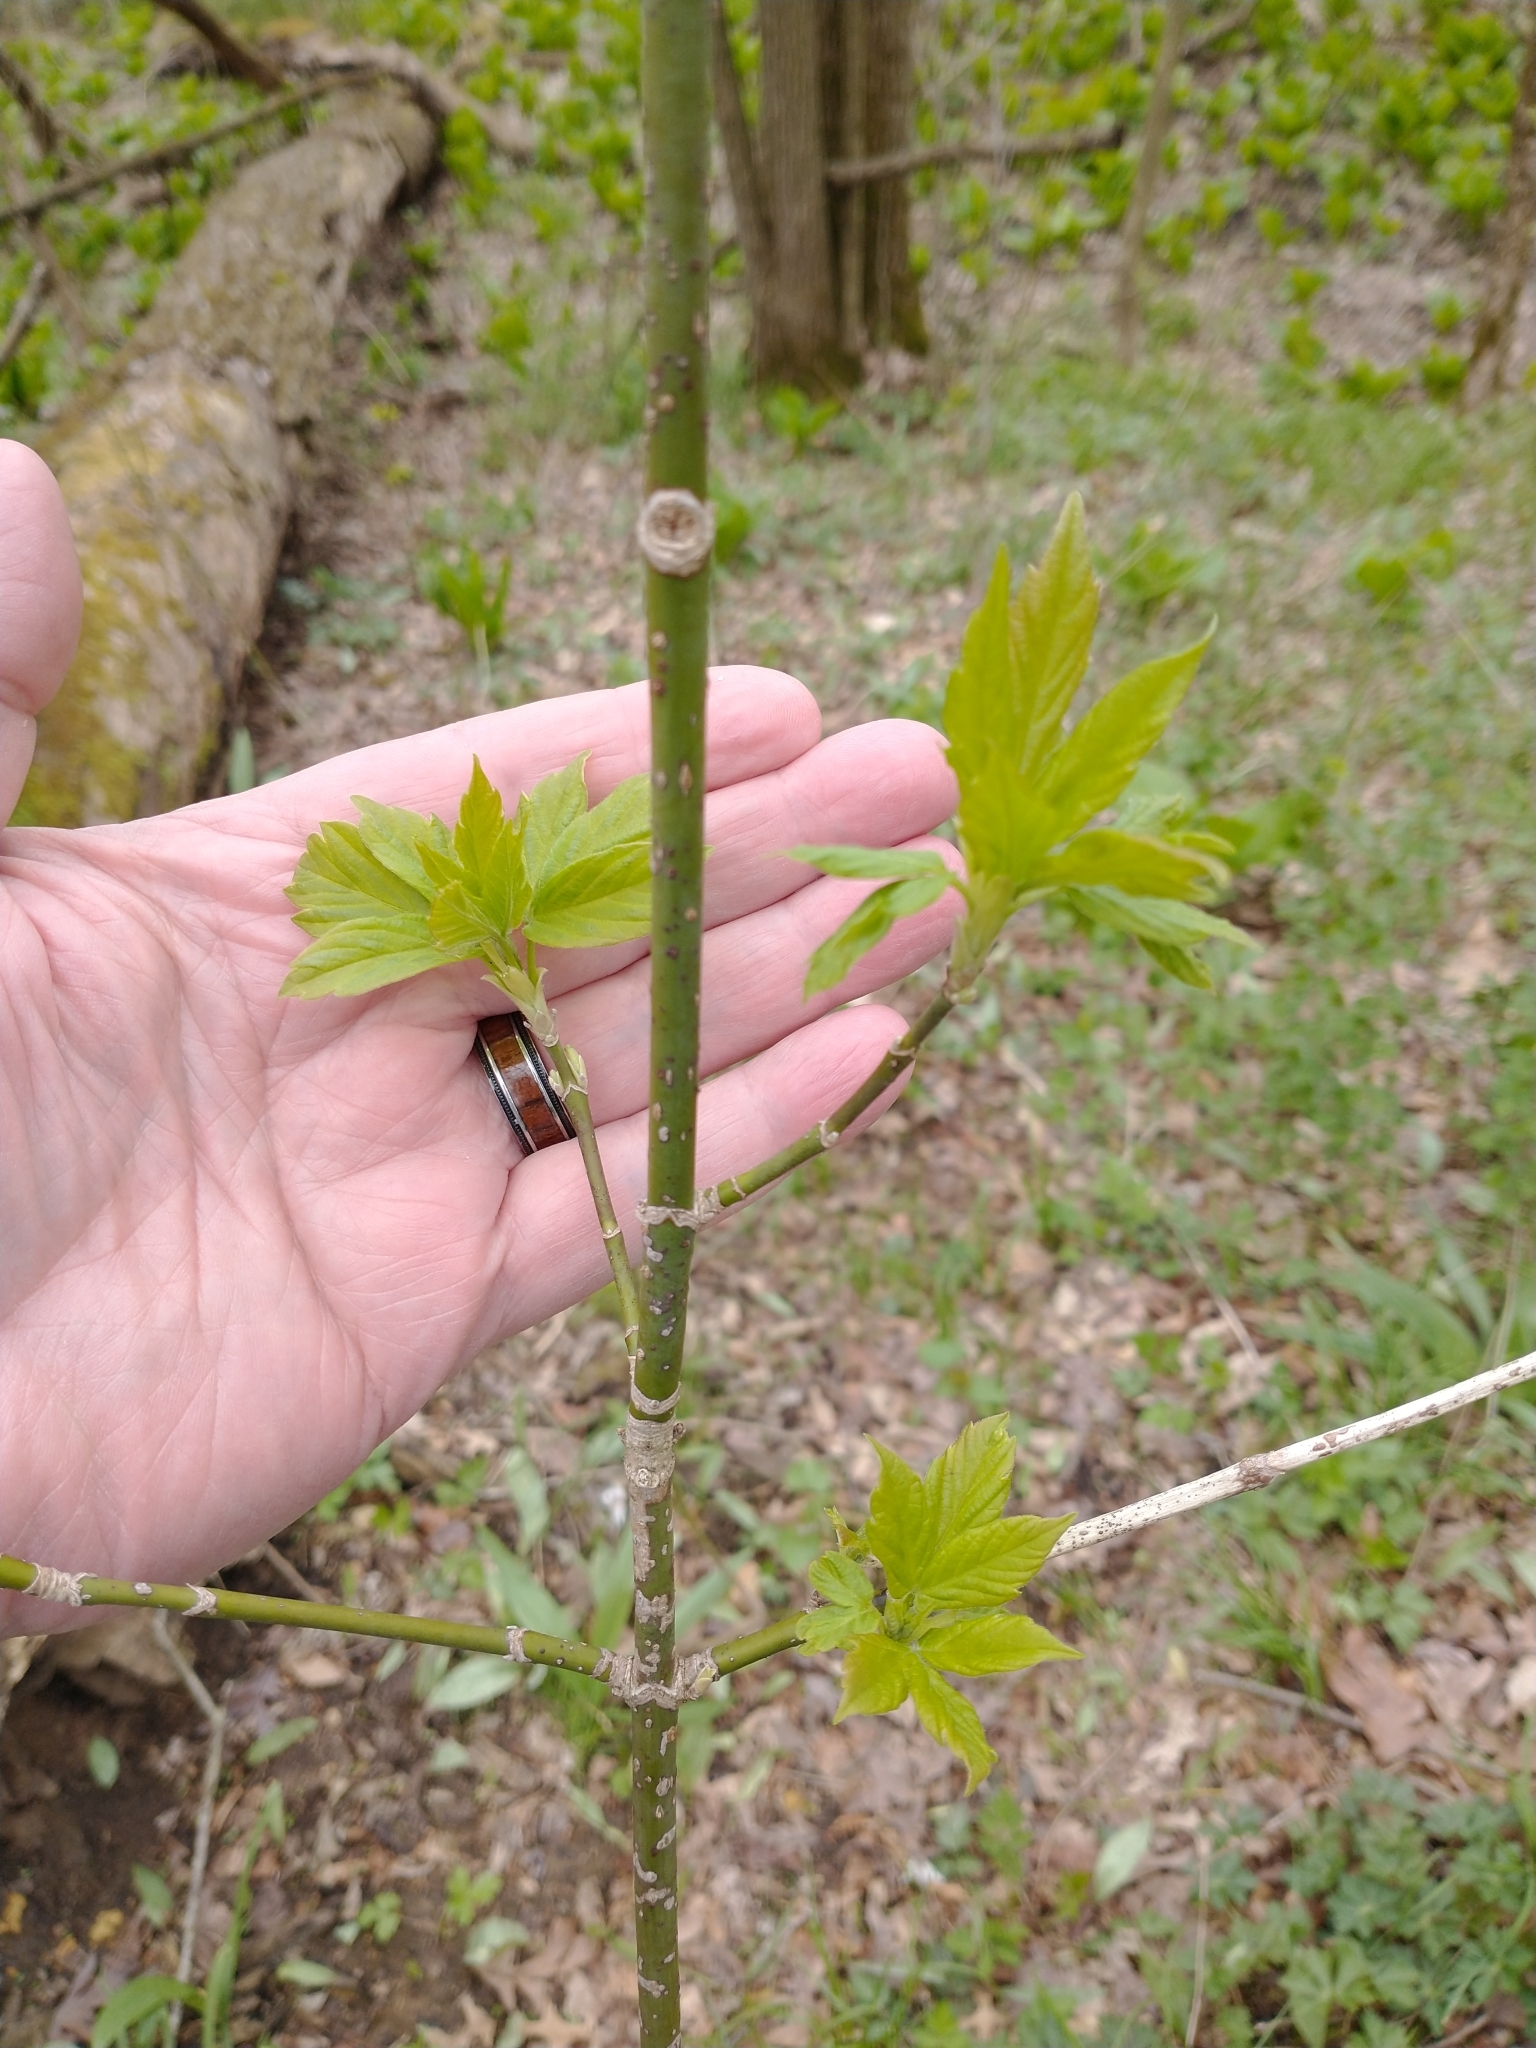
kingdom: Plantae
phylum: Tracheophyta
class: Magnoliopsida
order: Sapindales
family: Sapindaceae
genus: Acer
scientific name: Acer negundo
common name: Ashleaf maple
